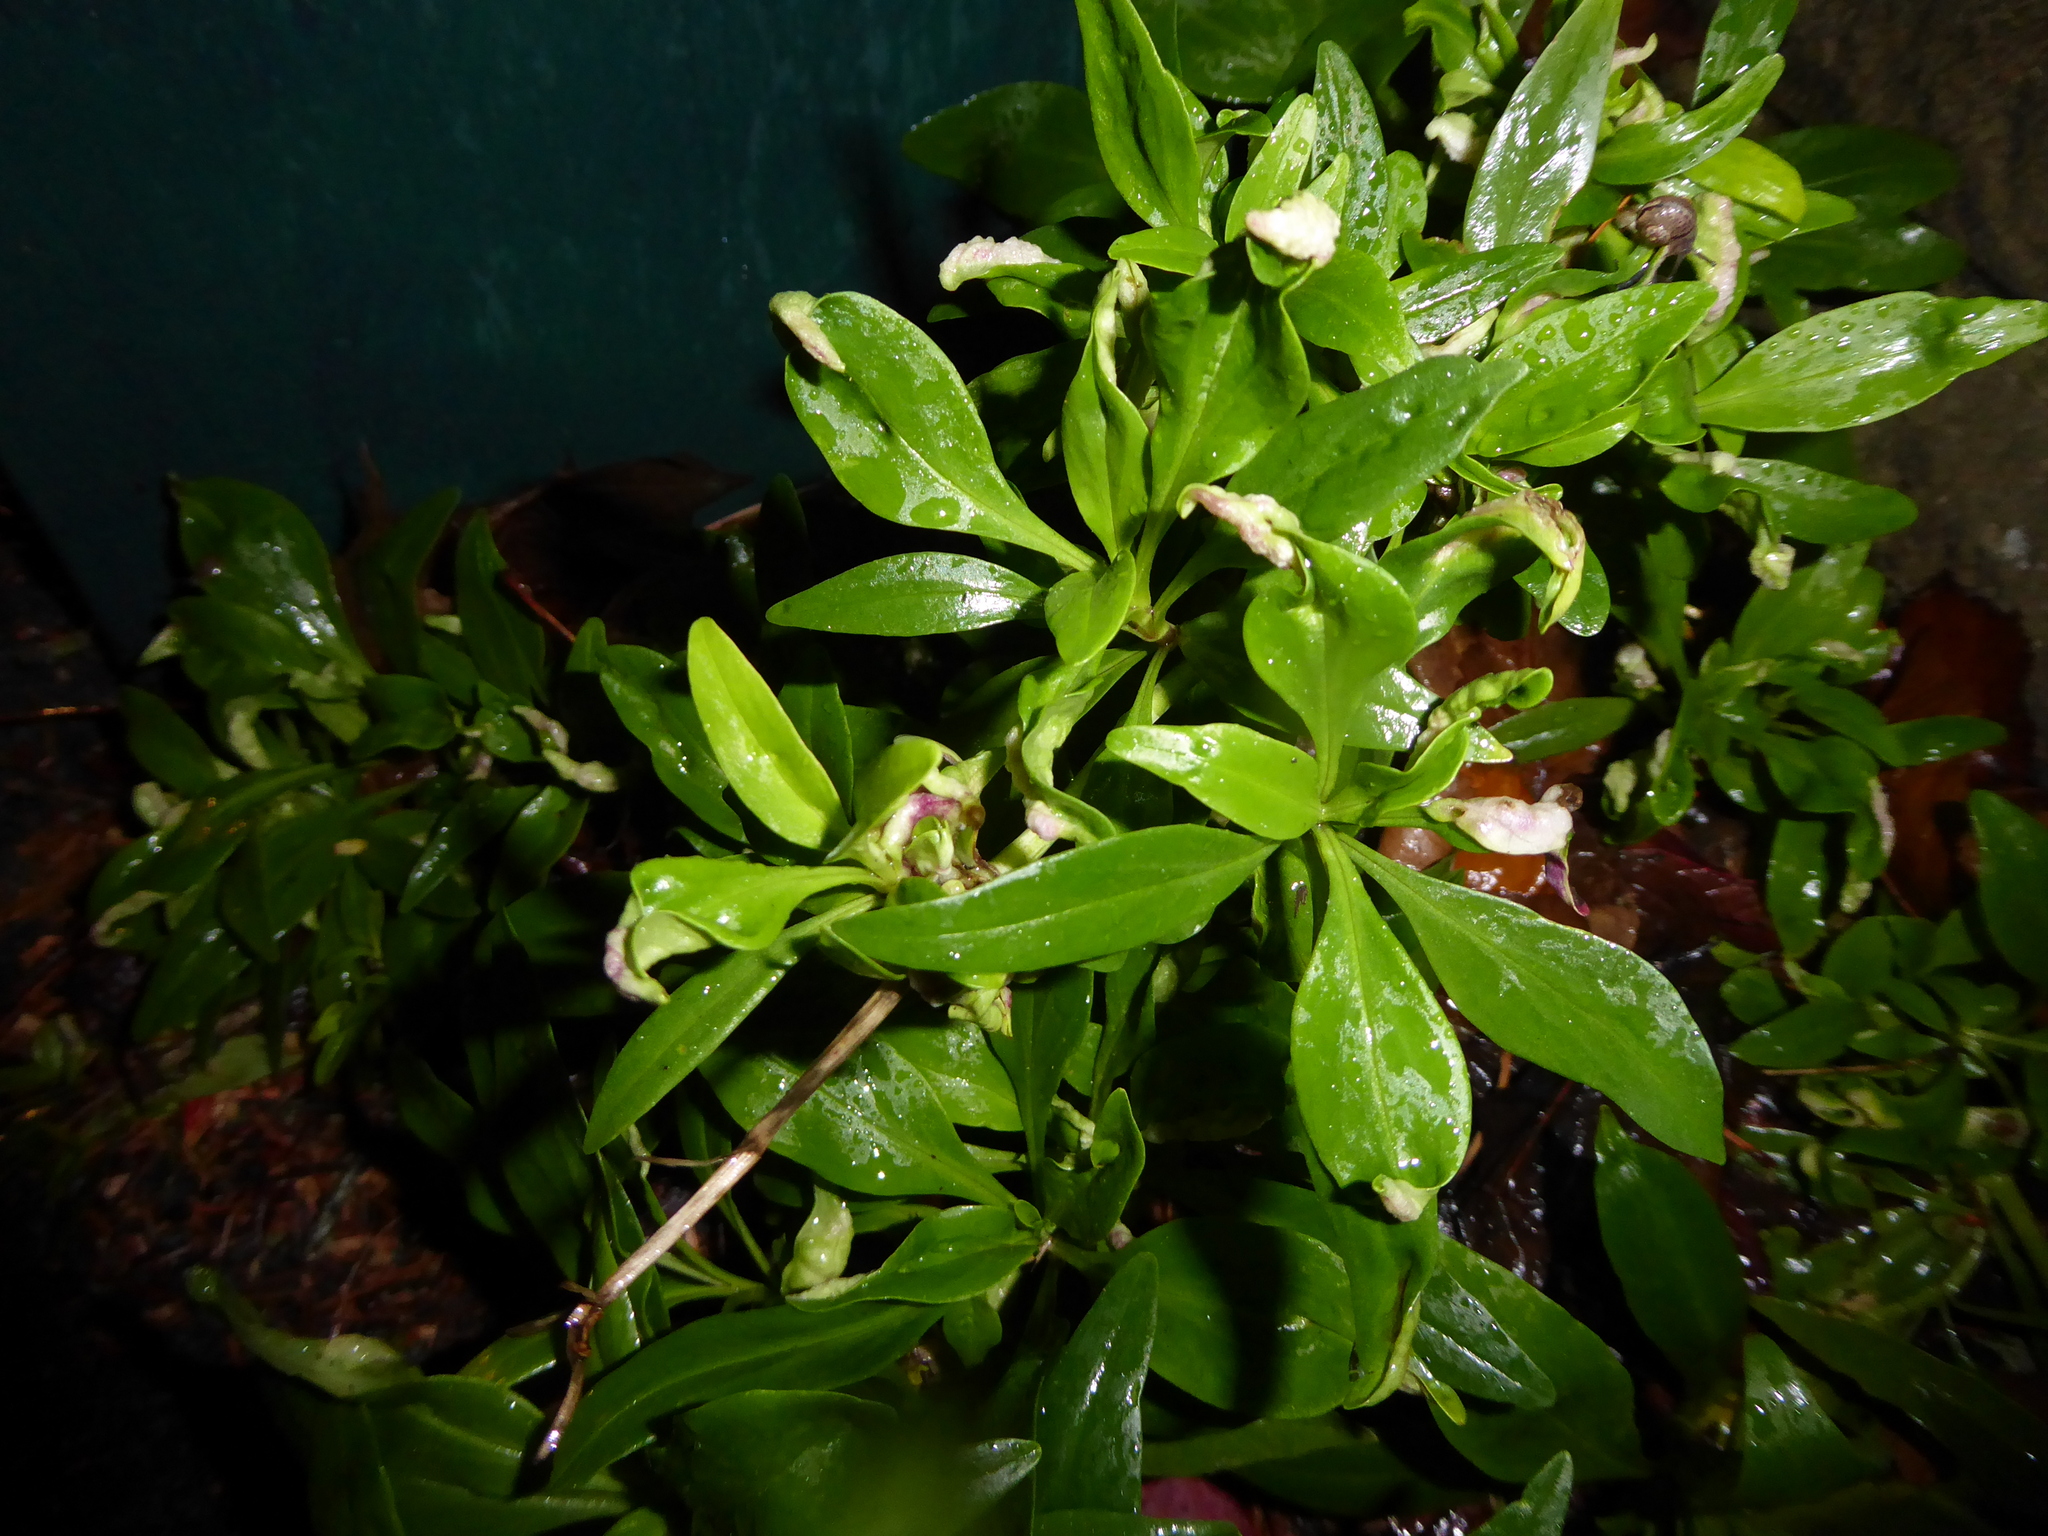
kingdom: Animalia
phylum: Arthropoda
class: Insecta
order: Hemiptera
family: Triozidae
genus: Trioza
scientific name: Trioza centranthi
